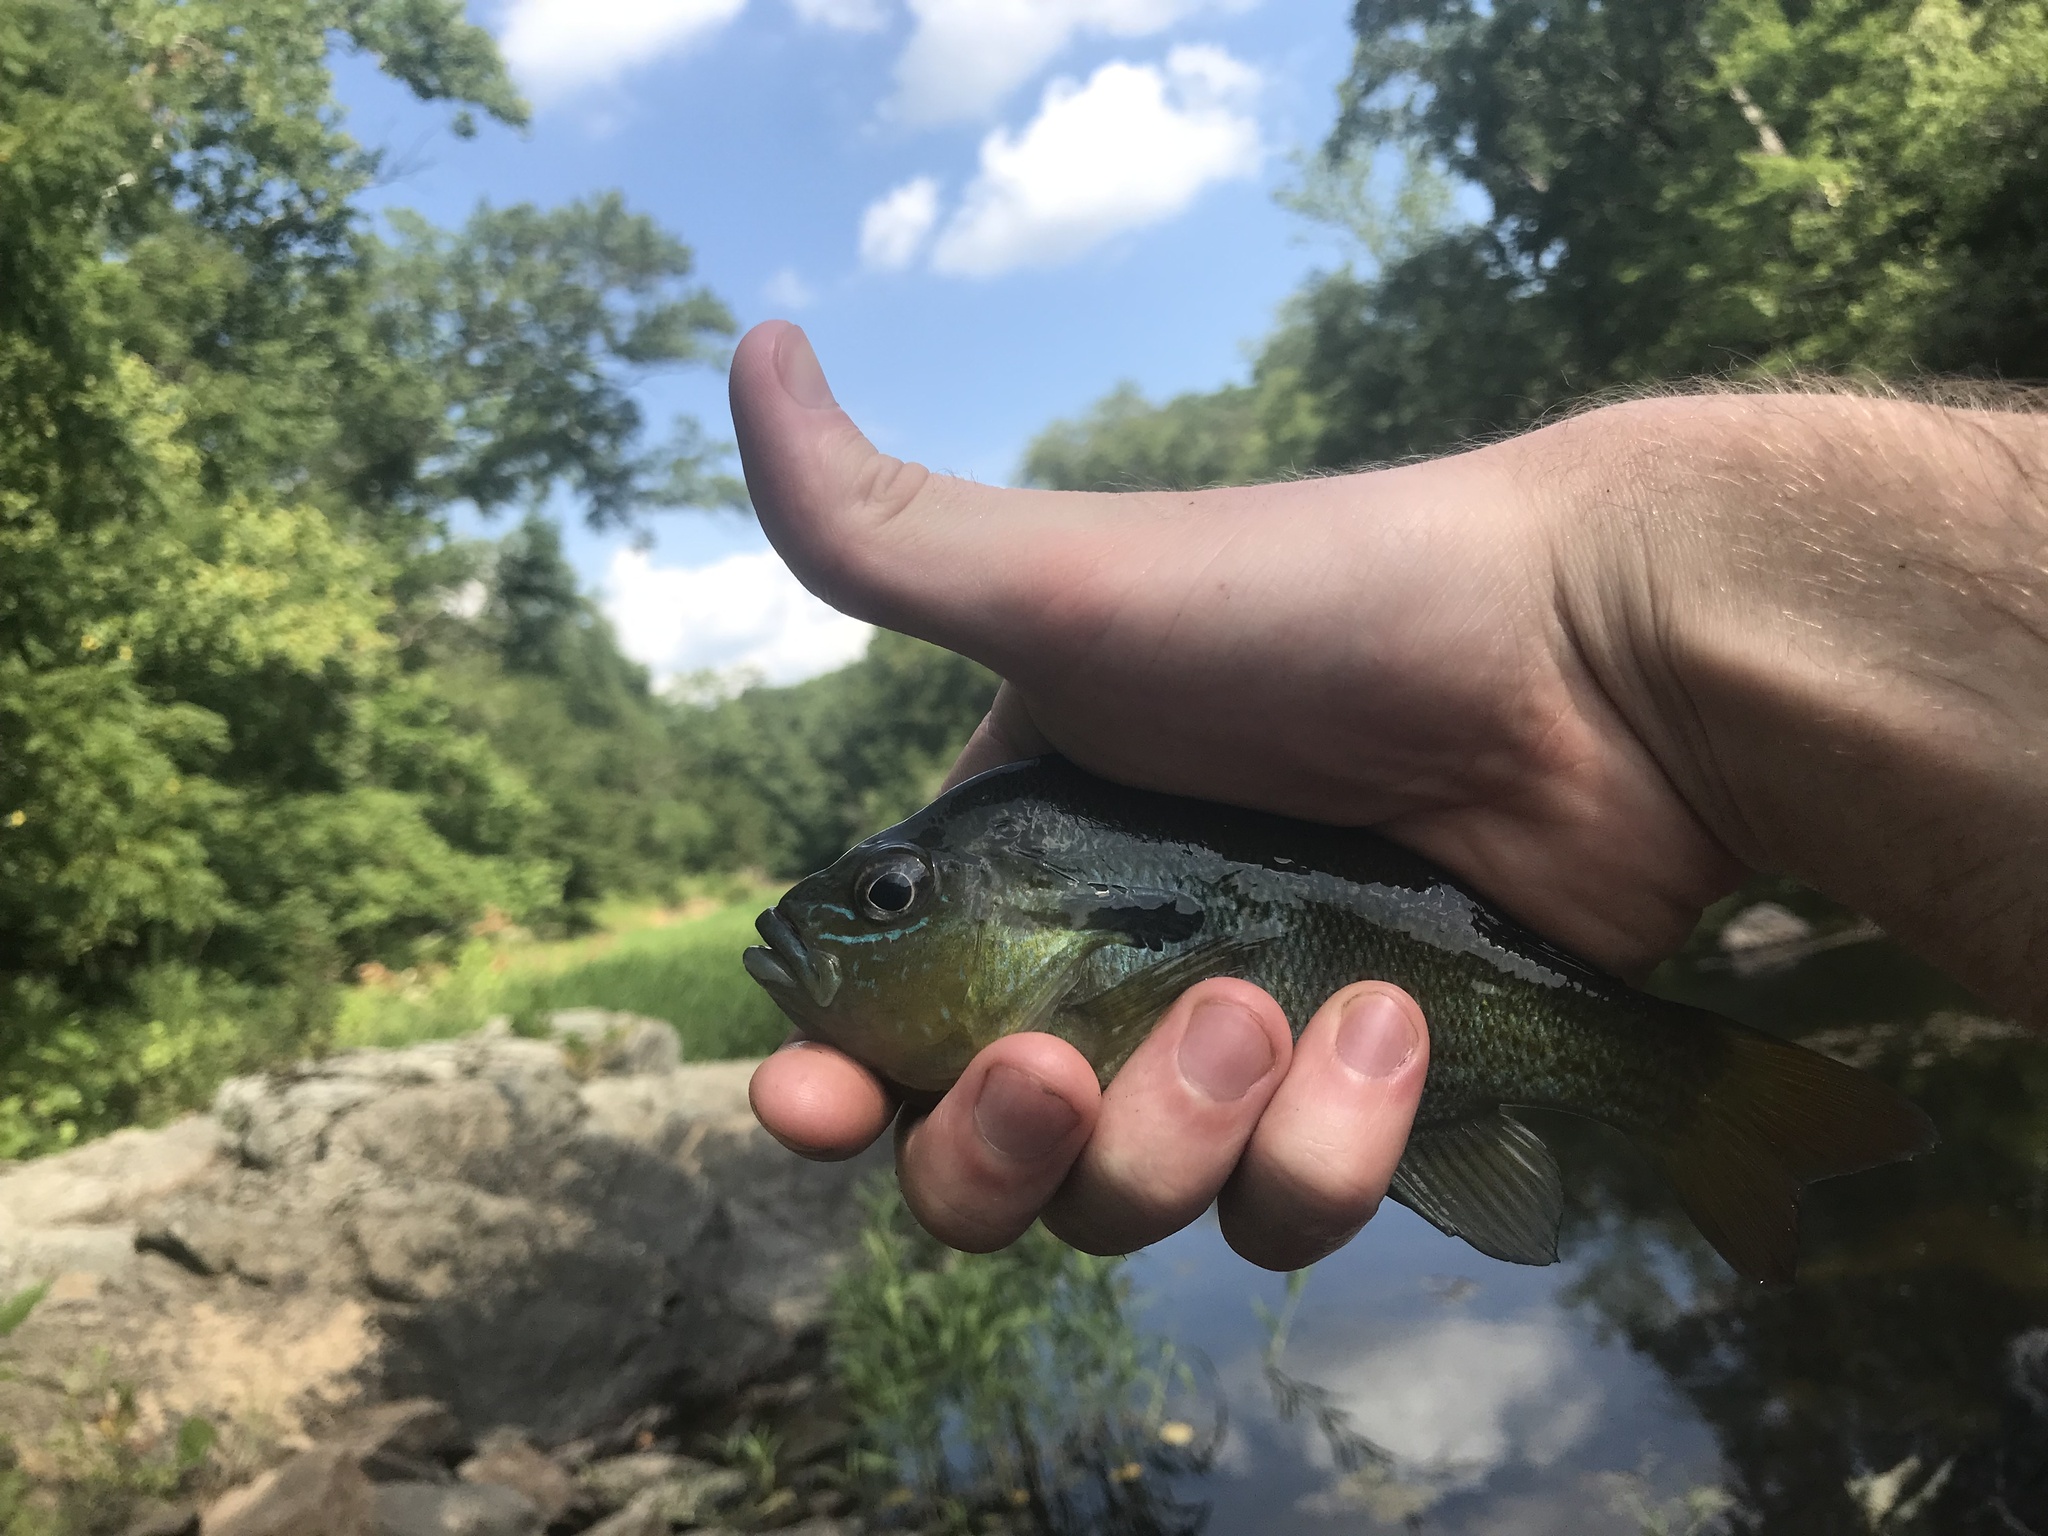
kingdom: Animalia
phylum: Chordata
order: Perciformes
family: Centrarchidae
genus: Lepomis
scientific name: Lepomis auritus
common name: Redbreast sunfish
